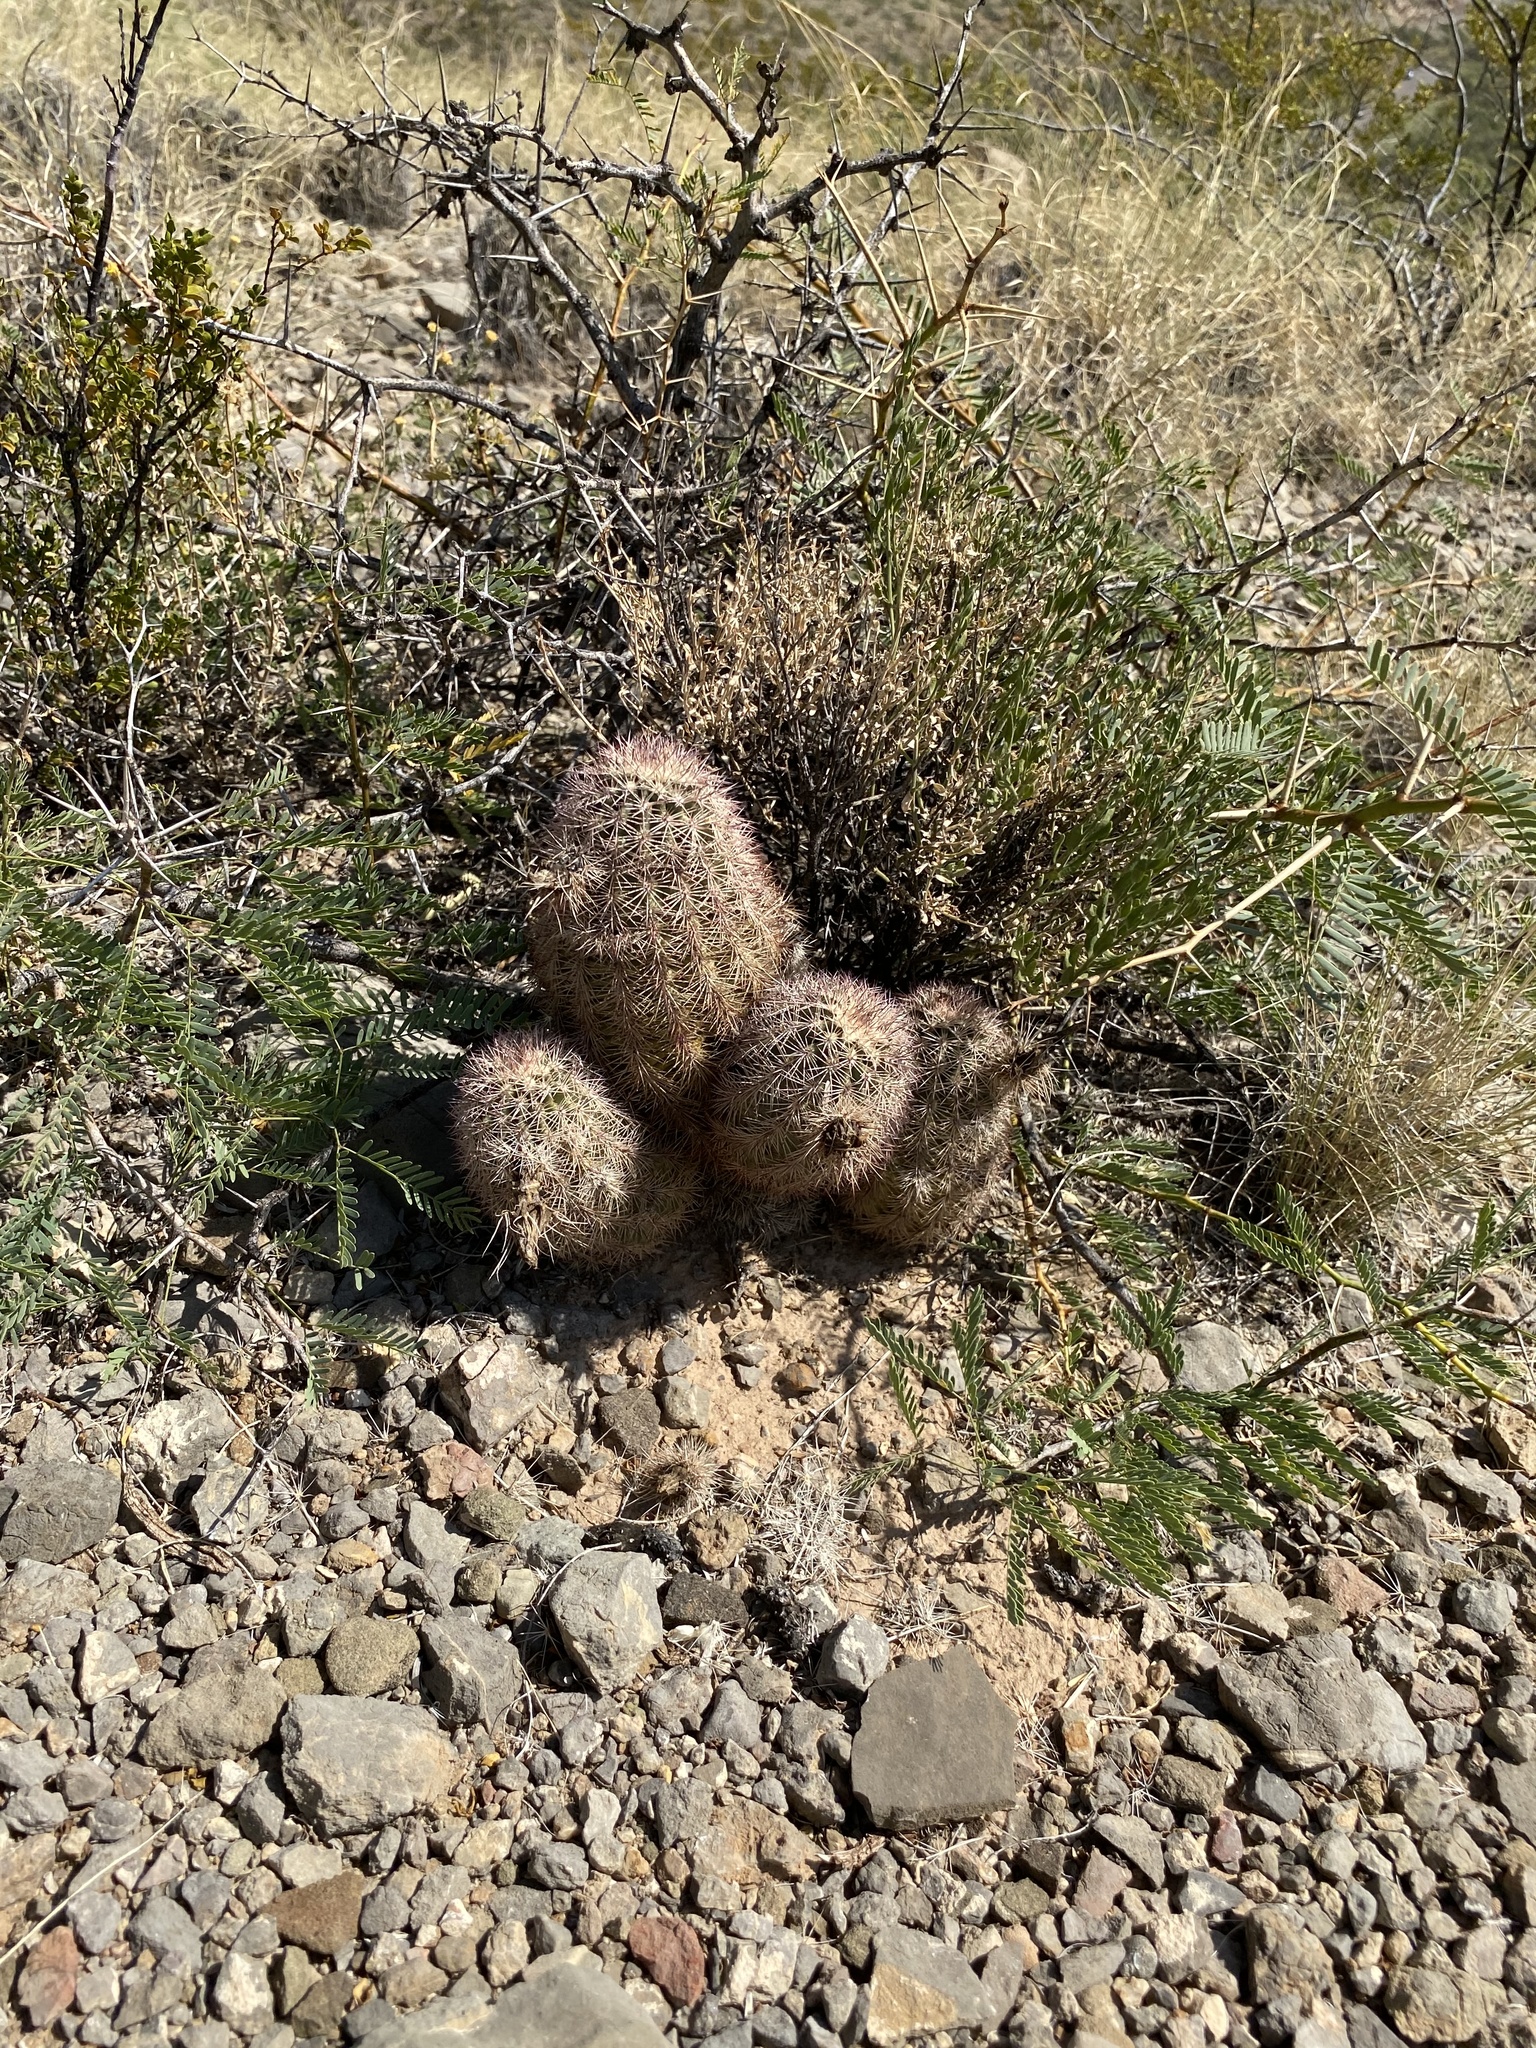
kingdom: Plantae
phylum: Tracheophyta
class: Magnoliopsida
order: Caryophyllales
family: Cactaceae
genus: Echinocereus
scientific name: Echinocereus dasyacanthus
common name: Spiny hedgehog cactus
